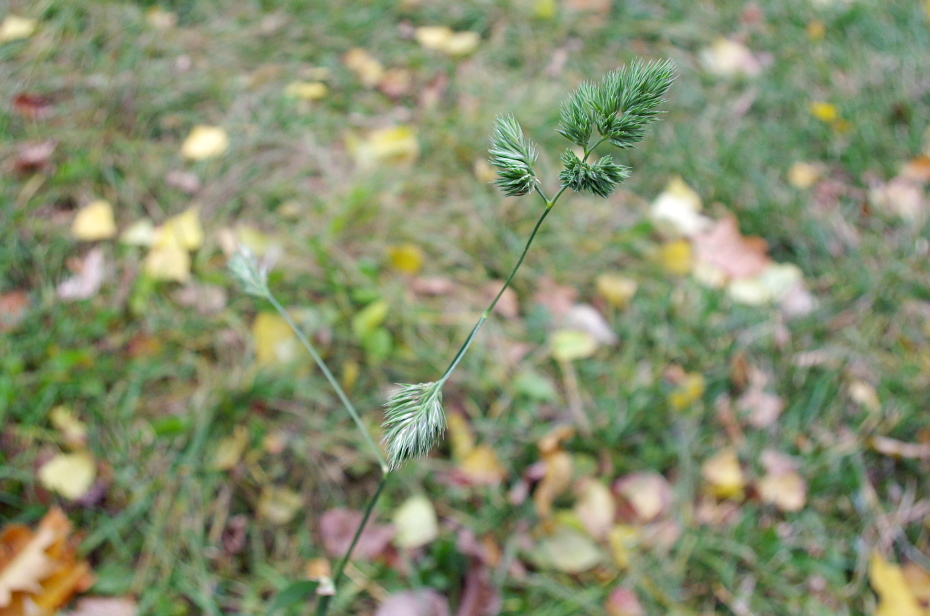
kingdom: Plantae
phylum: Tracheophyta
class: Liliopsida
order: Poales
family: Poaceae
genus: Dactylis
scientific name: Dactylis glomerata
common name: Orchardgrass
